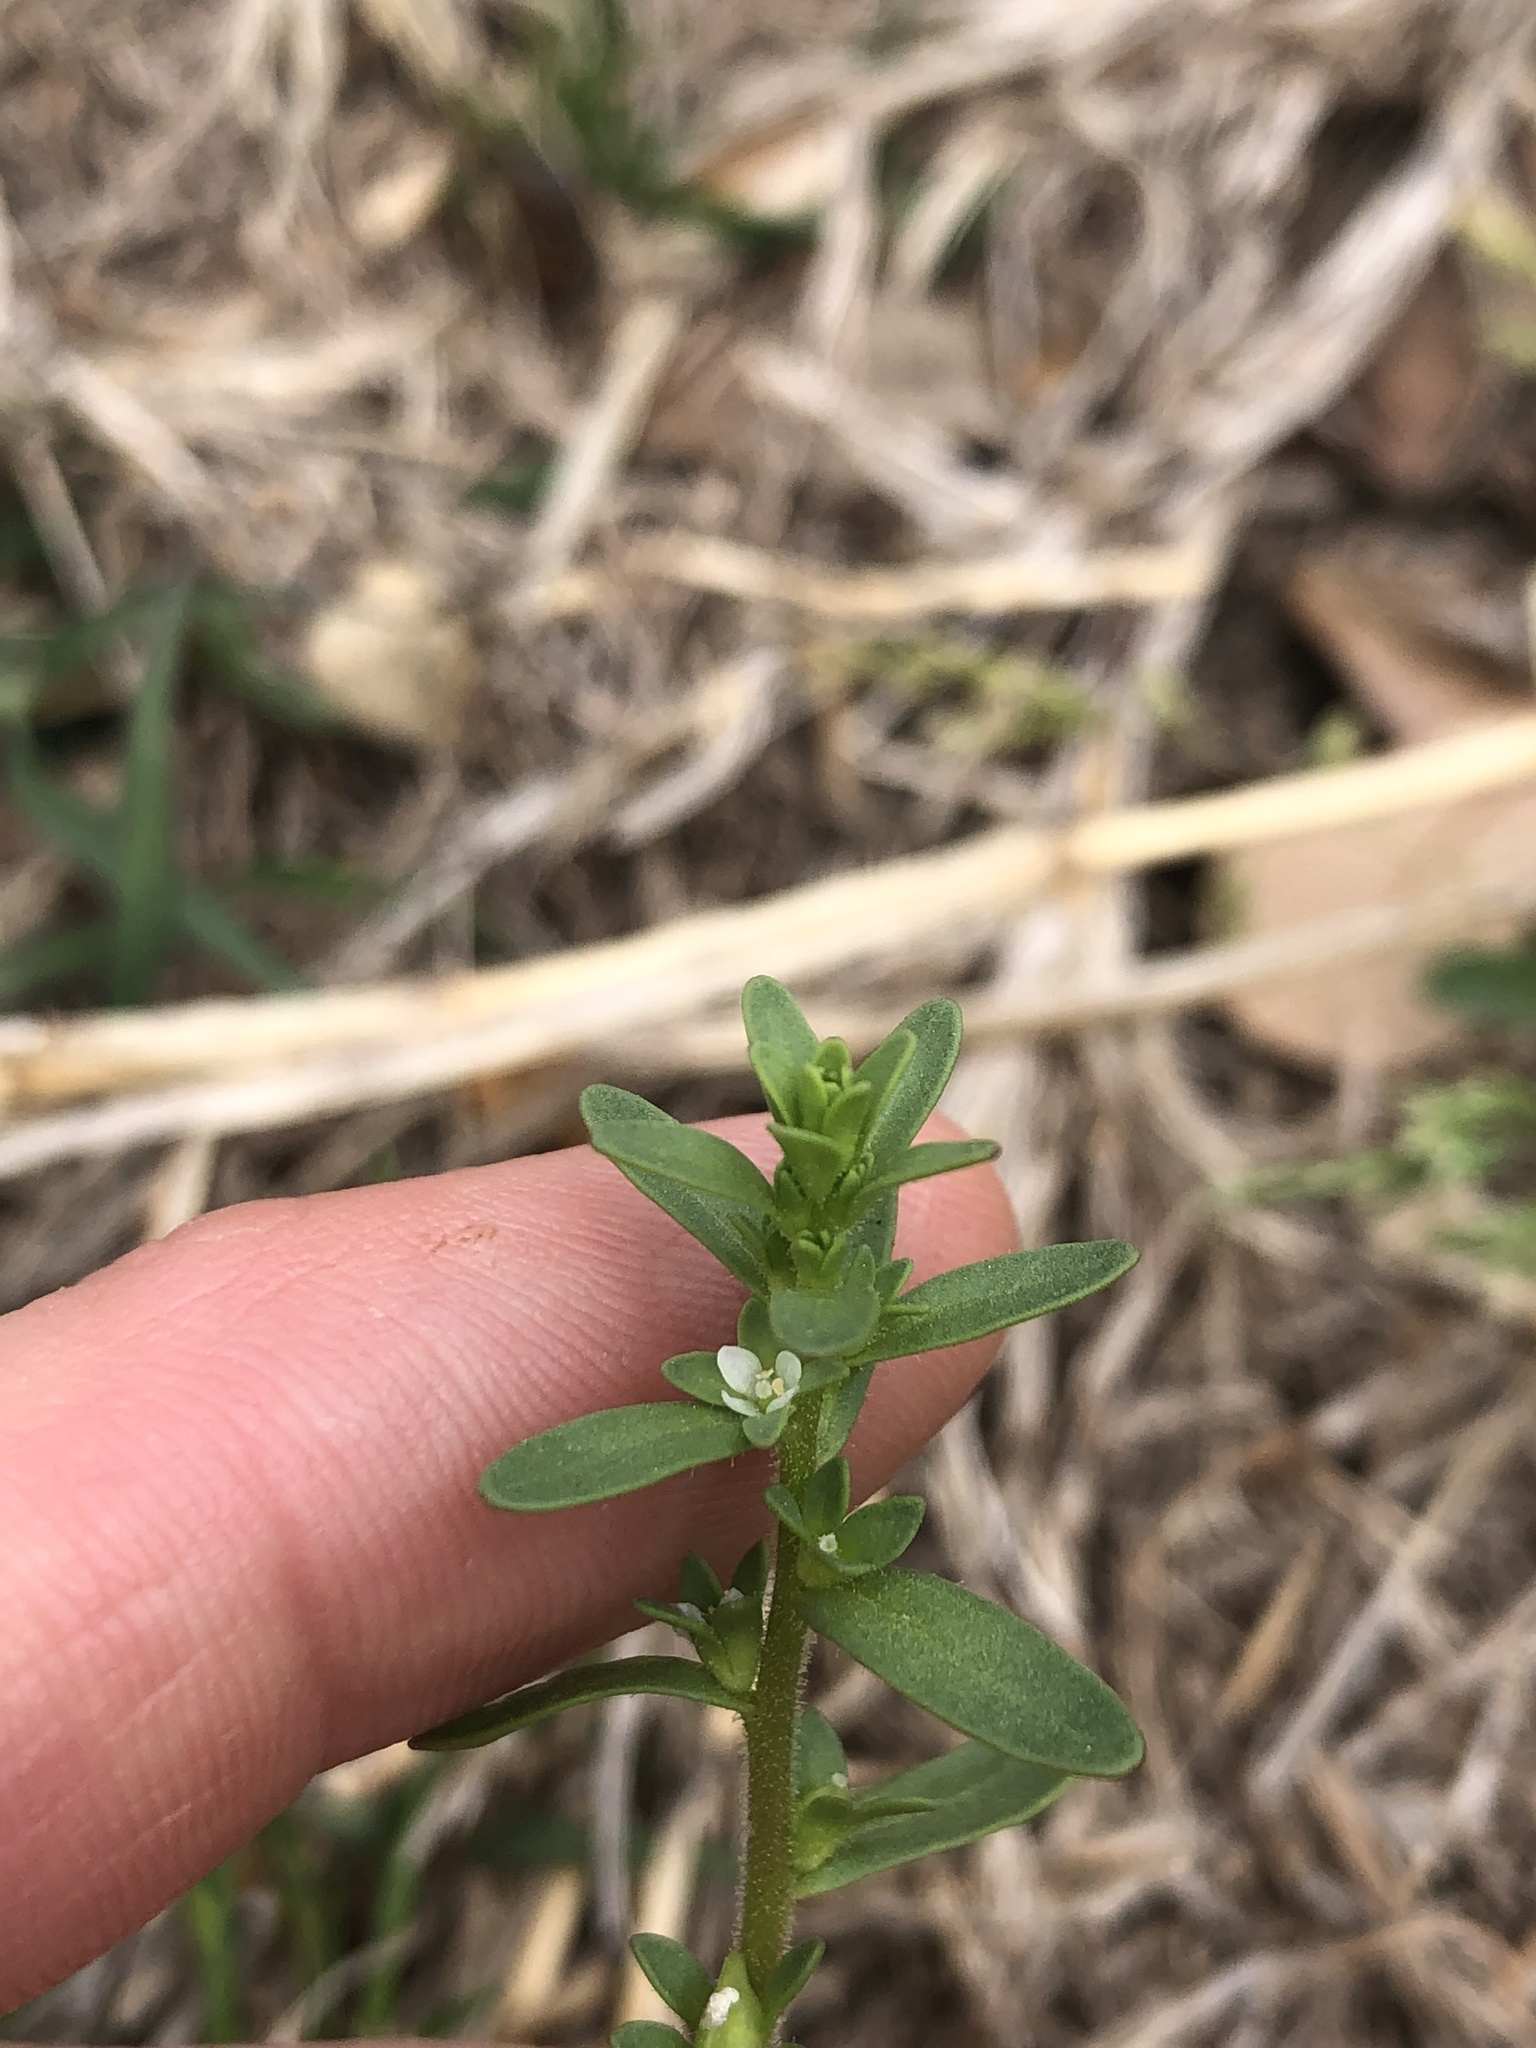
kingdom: Plantae
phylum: Tracheophyta
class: Magnoliopsida
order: Lamiales
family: Plantaginaceae
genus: Veronica
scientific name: Veronica peregrina
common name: Neckweed
